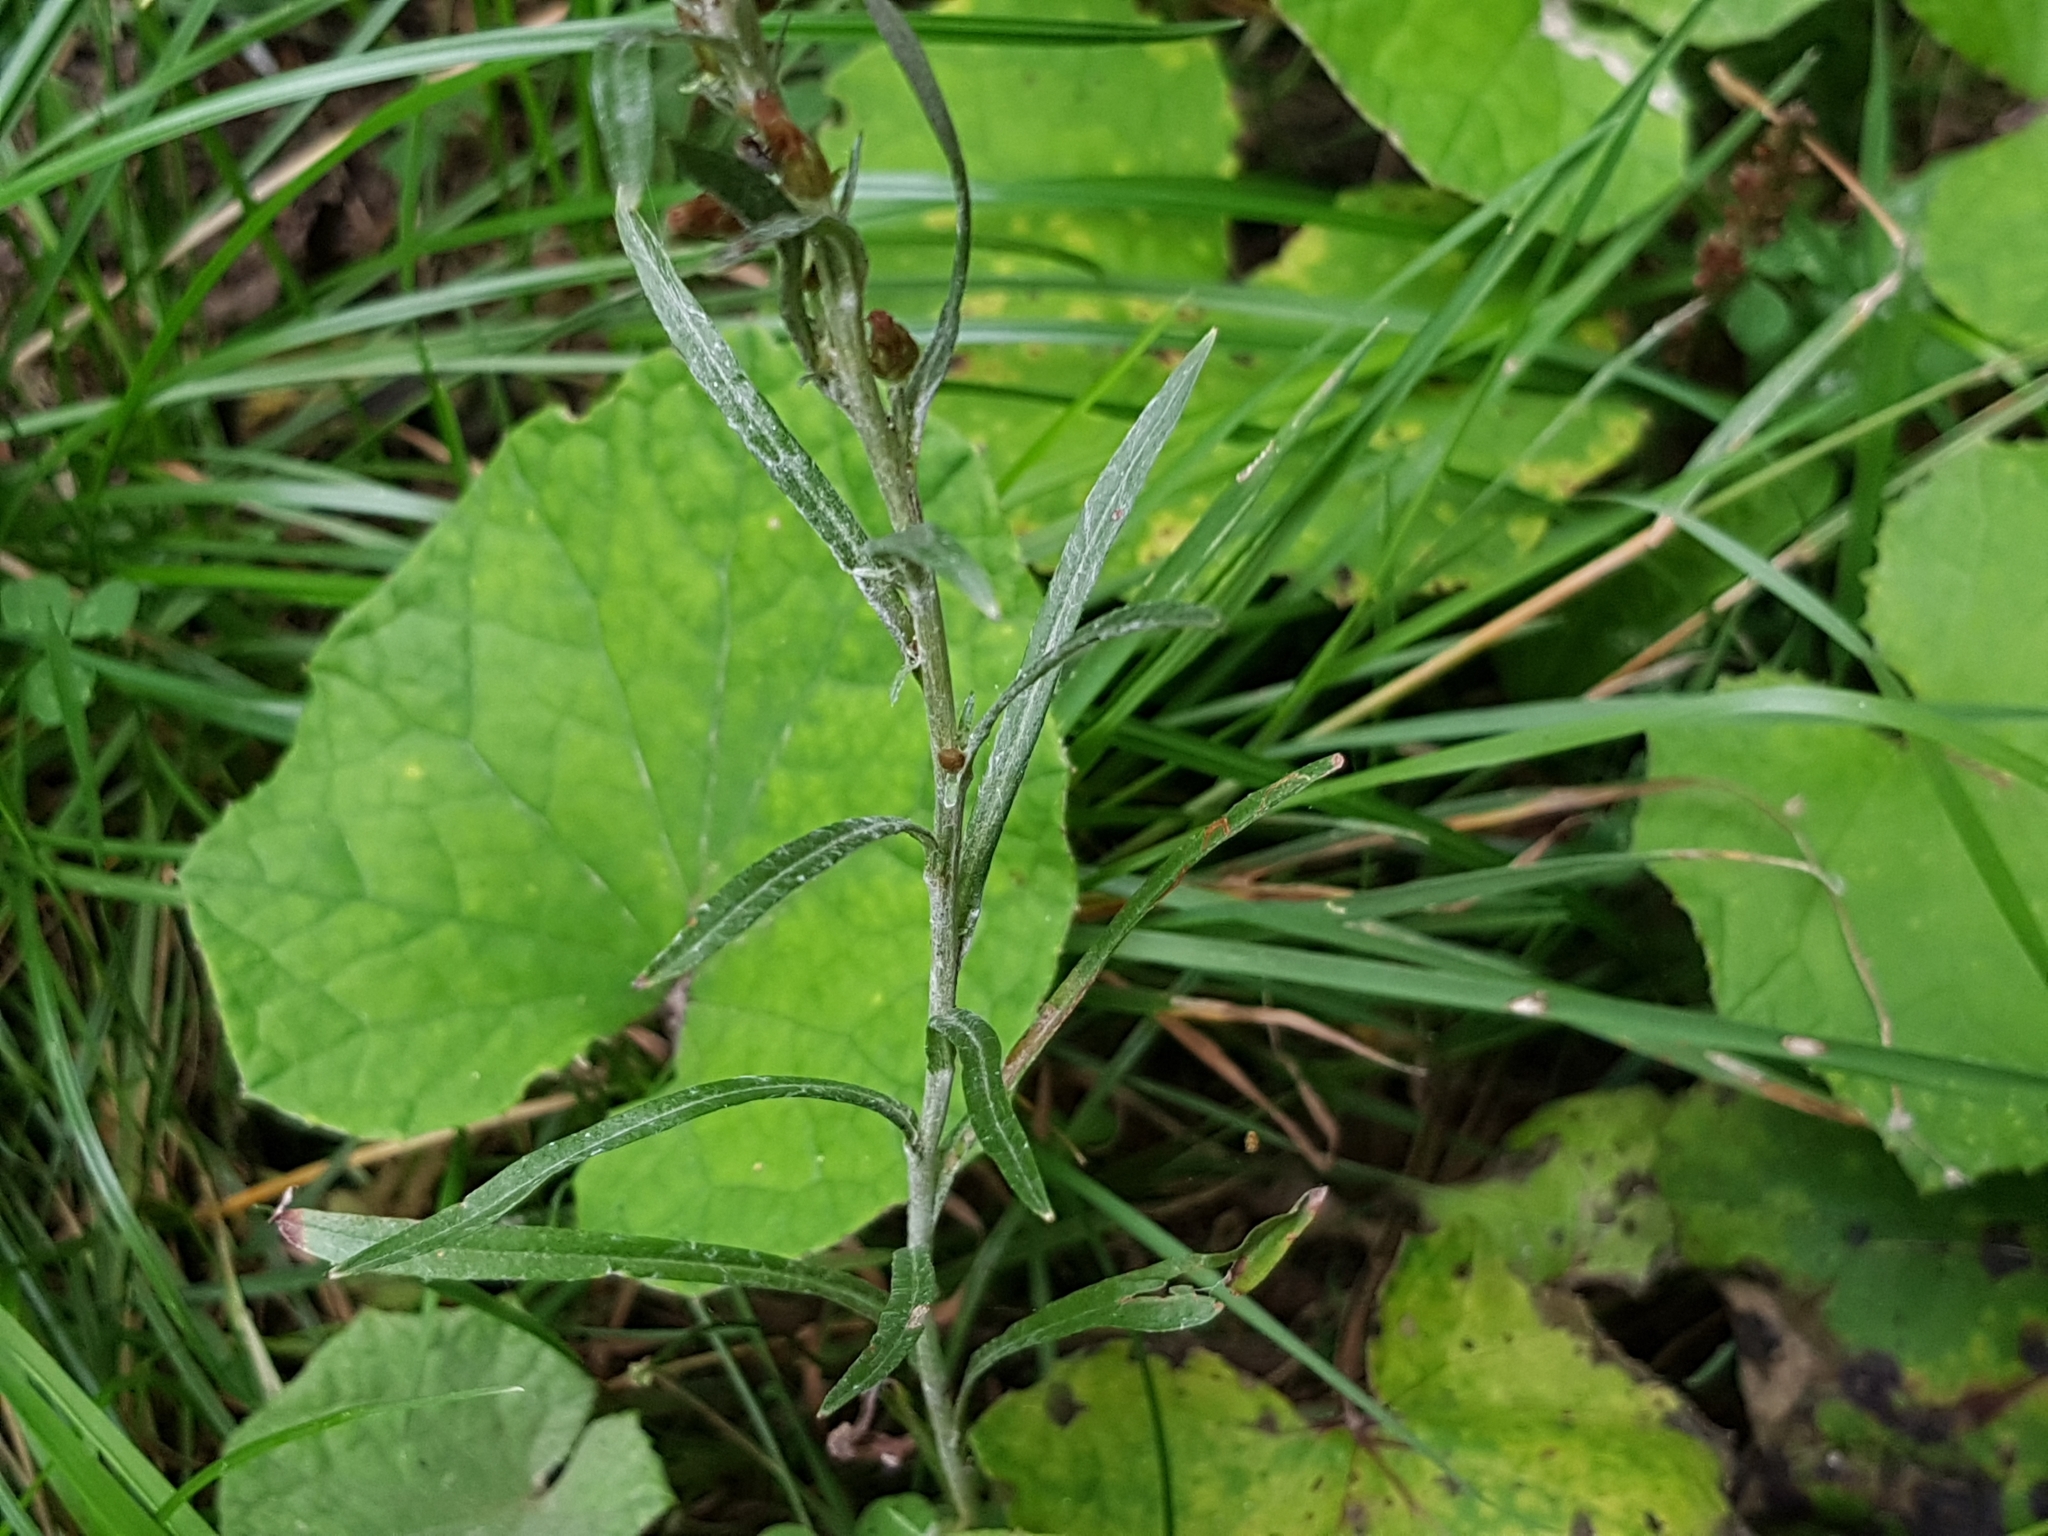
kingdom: Plantae
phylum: Tracheophyta
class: Magnoliopsida
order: Asterales
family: Asteraceae
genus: Omalotheca
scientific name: Omalotheca sylvatica
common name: Heath cudweed
